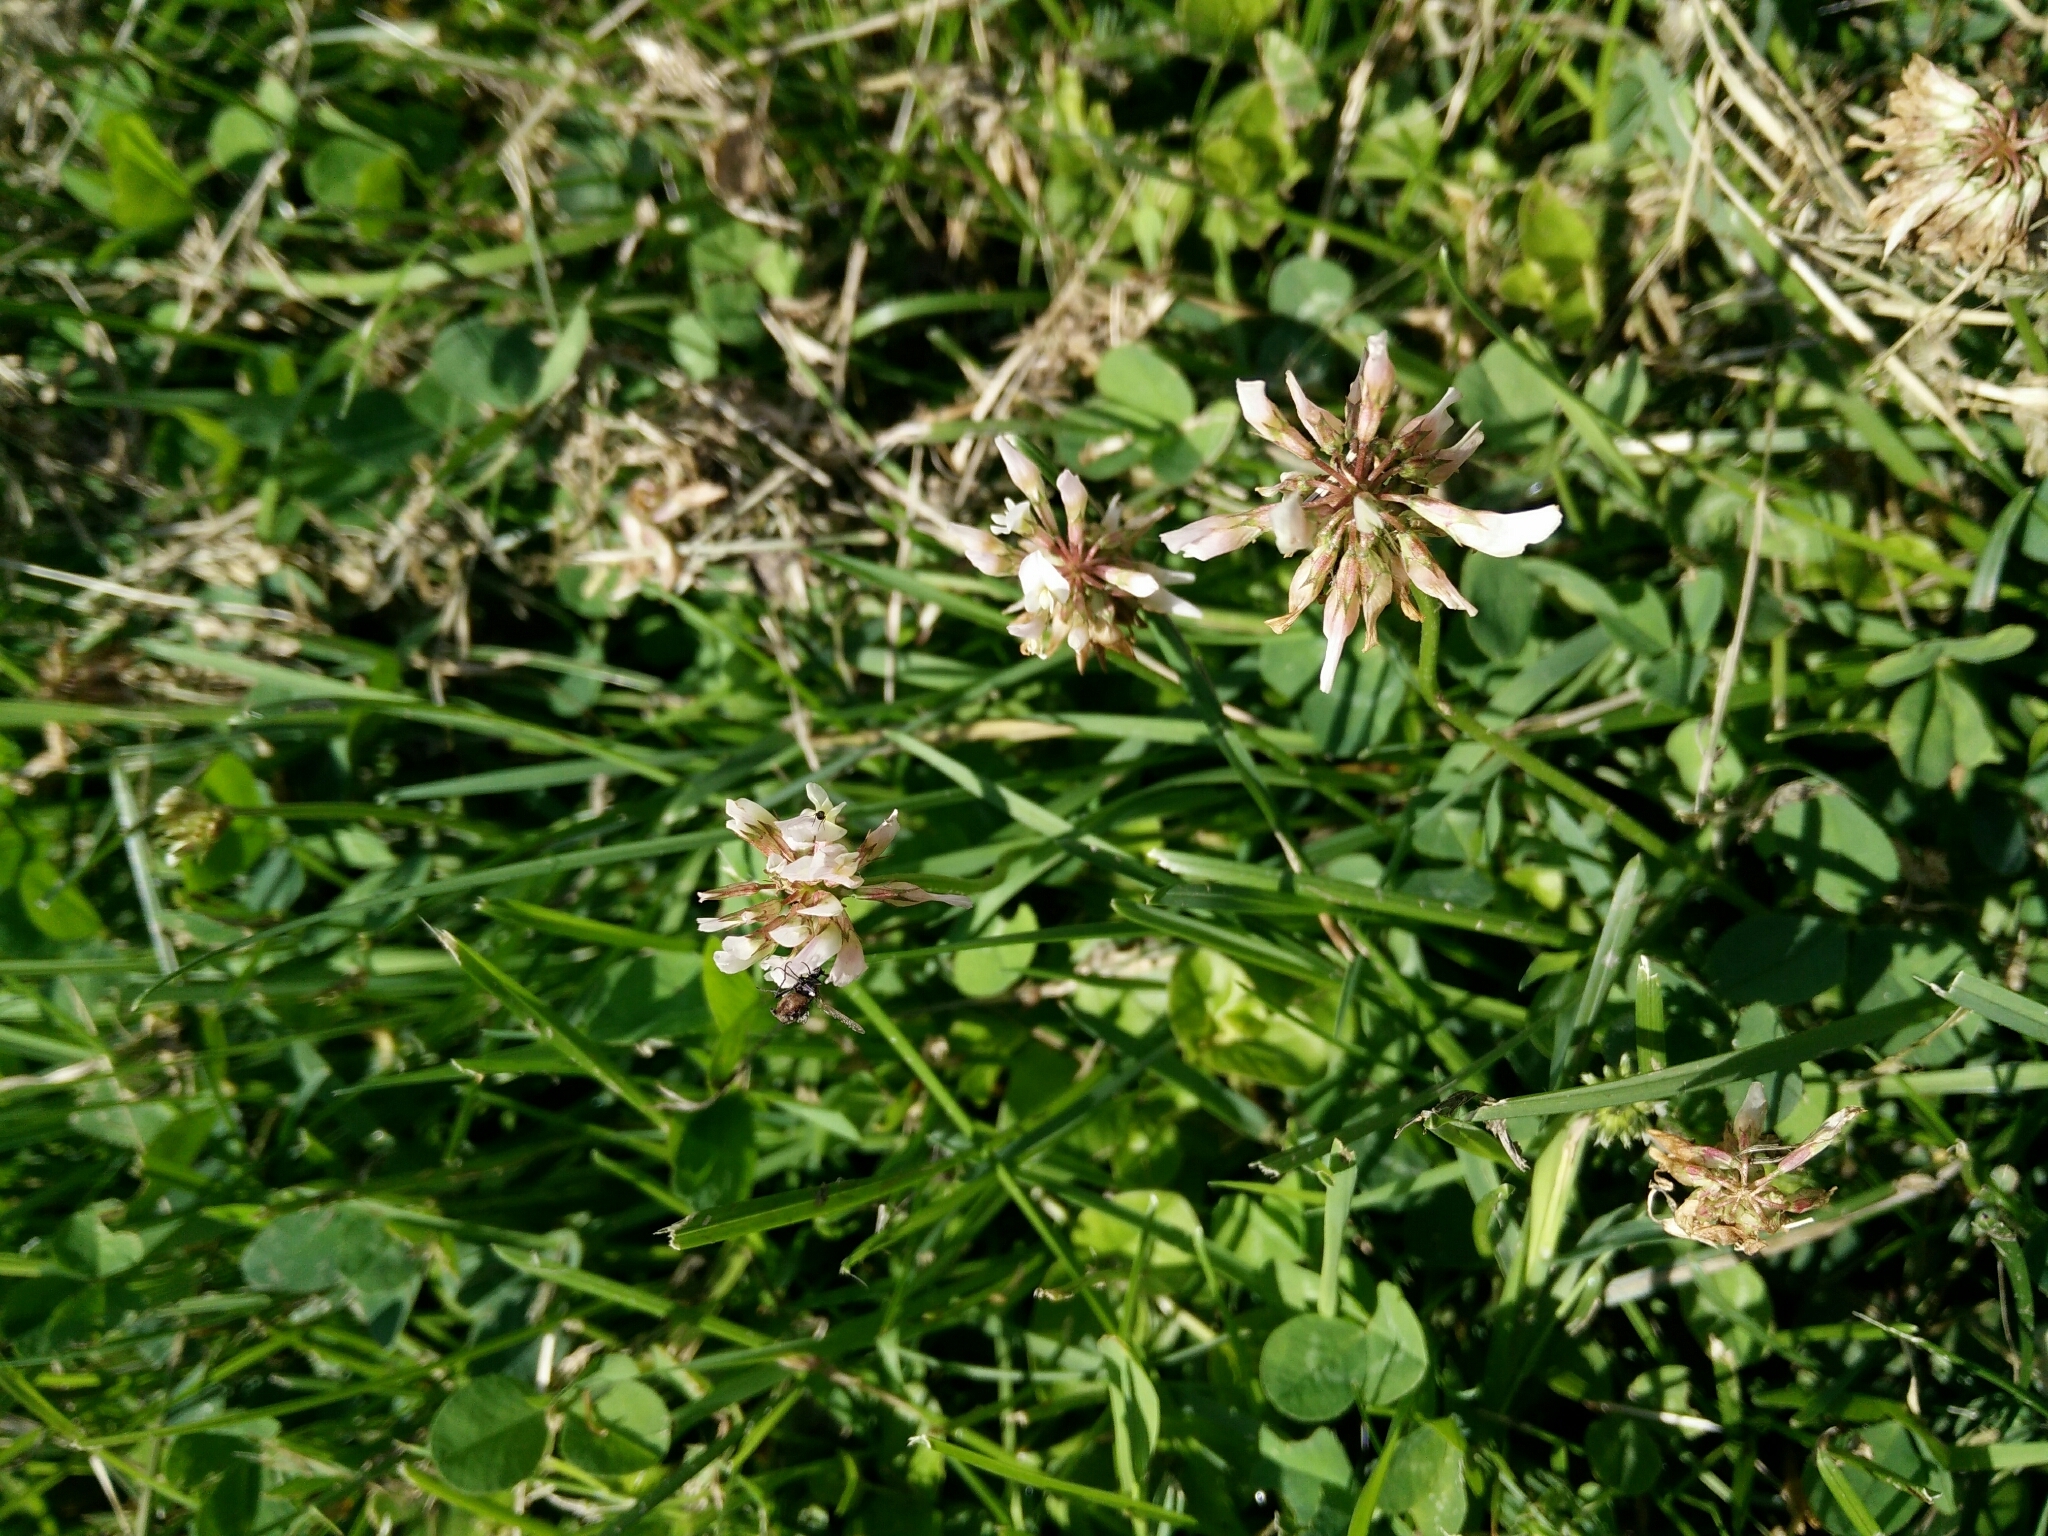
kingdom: Plantae
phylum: Tracheophyta
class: Magnoliopsida
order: Fabales
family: Fabaceae
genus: Trifolium
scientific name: Trifolium repens
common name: White clover
